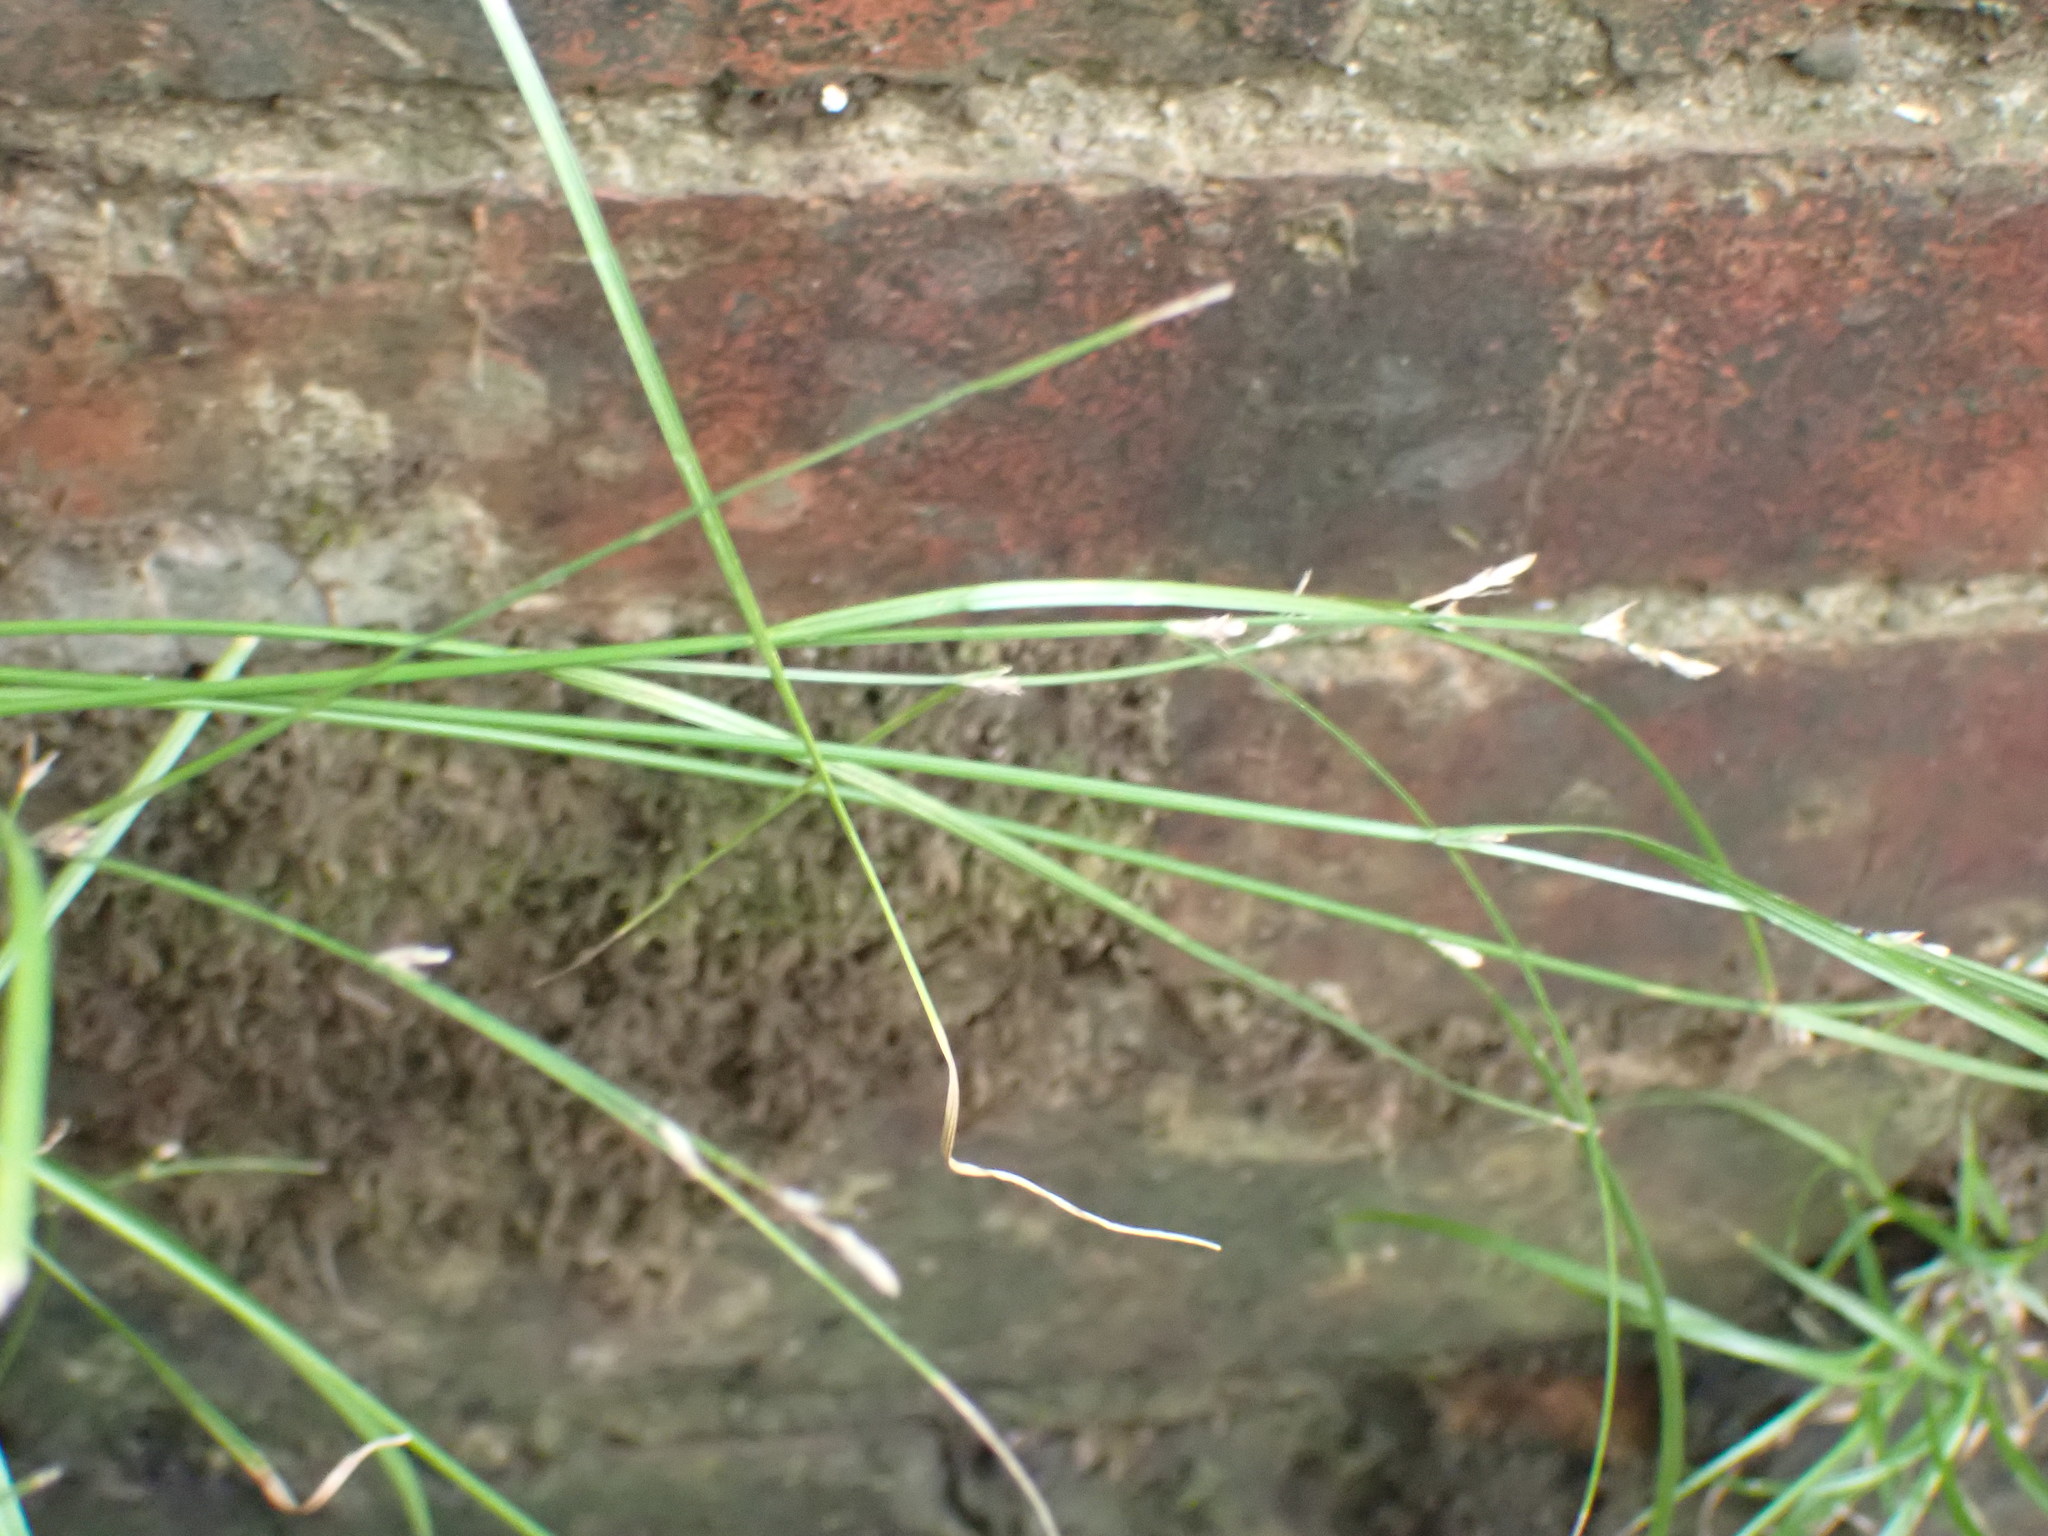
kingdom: Plantae
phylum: Tracheophyta
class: Liliopsida
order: Poales
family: Cyperaceae
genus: Carex
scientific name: Carex remota
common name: Remote sedge
